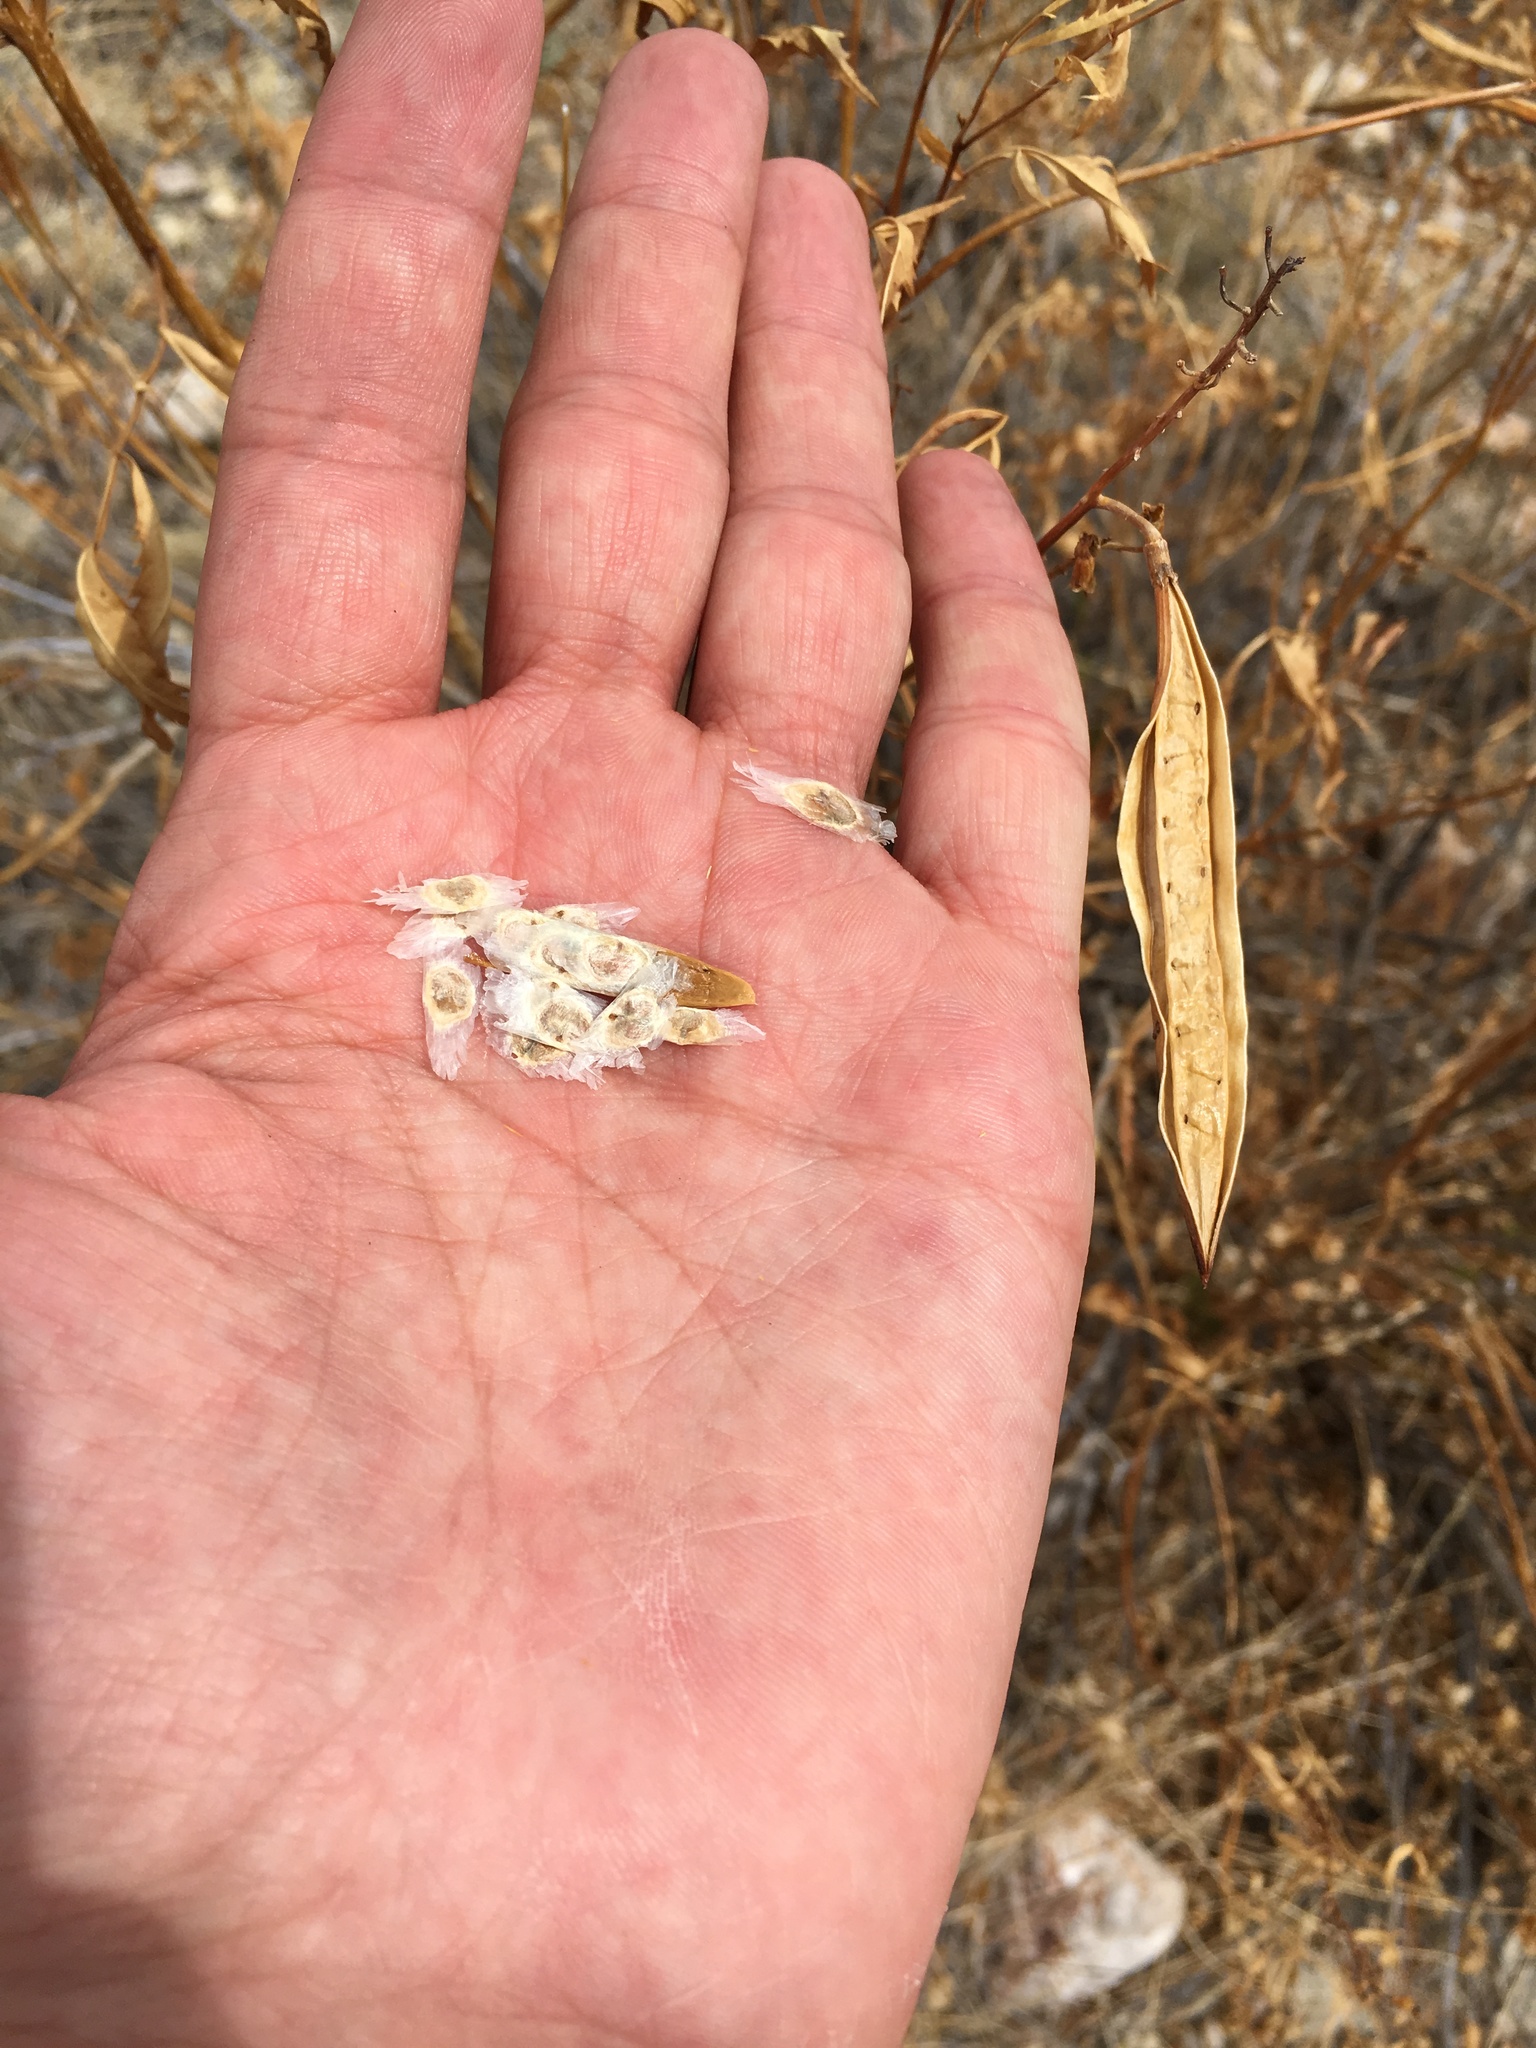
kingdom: Plantae
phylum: Tracheophyta
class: Magnoliopsida
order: Lamiales
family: Bignoniaceae
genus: Tecoma
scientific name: Tecoma stans
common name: Yellow trumpetbush
